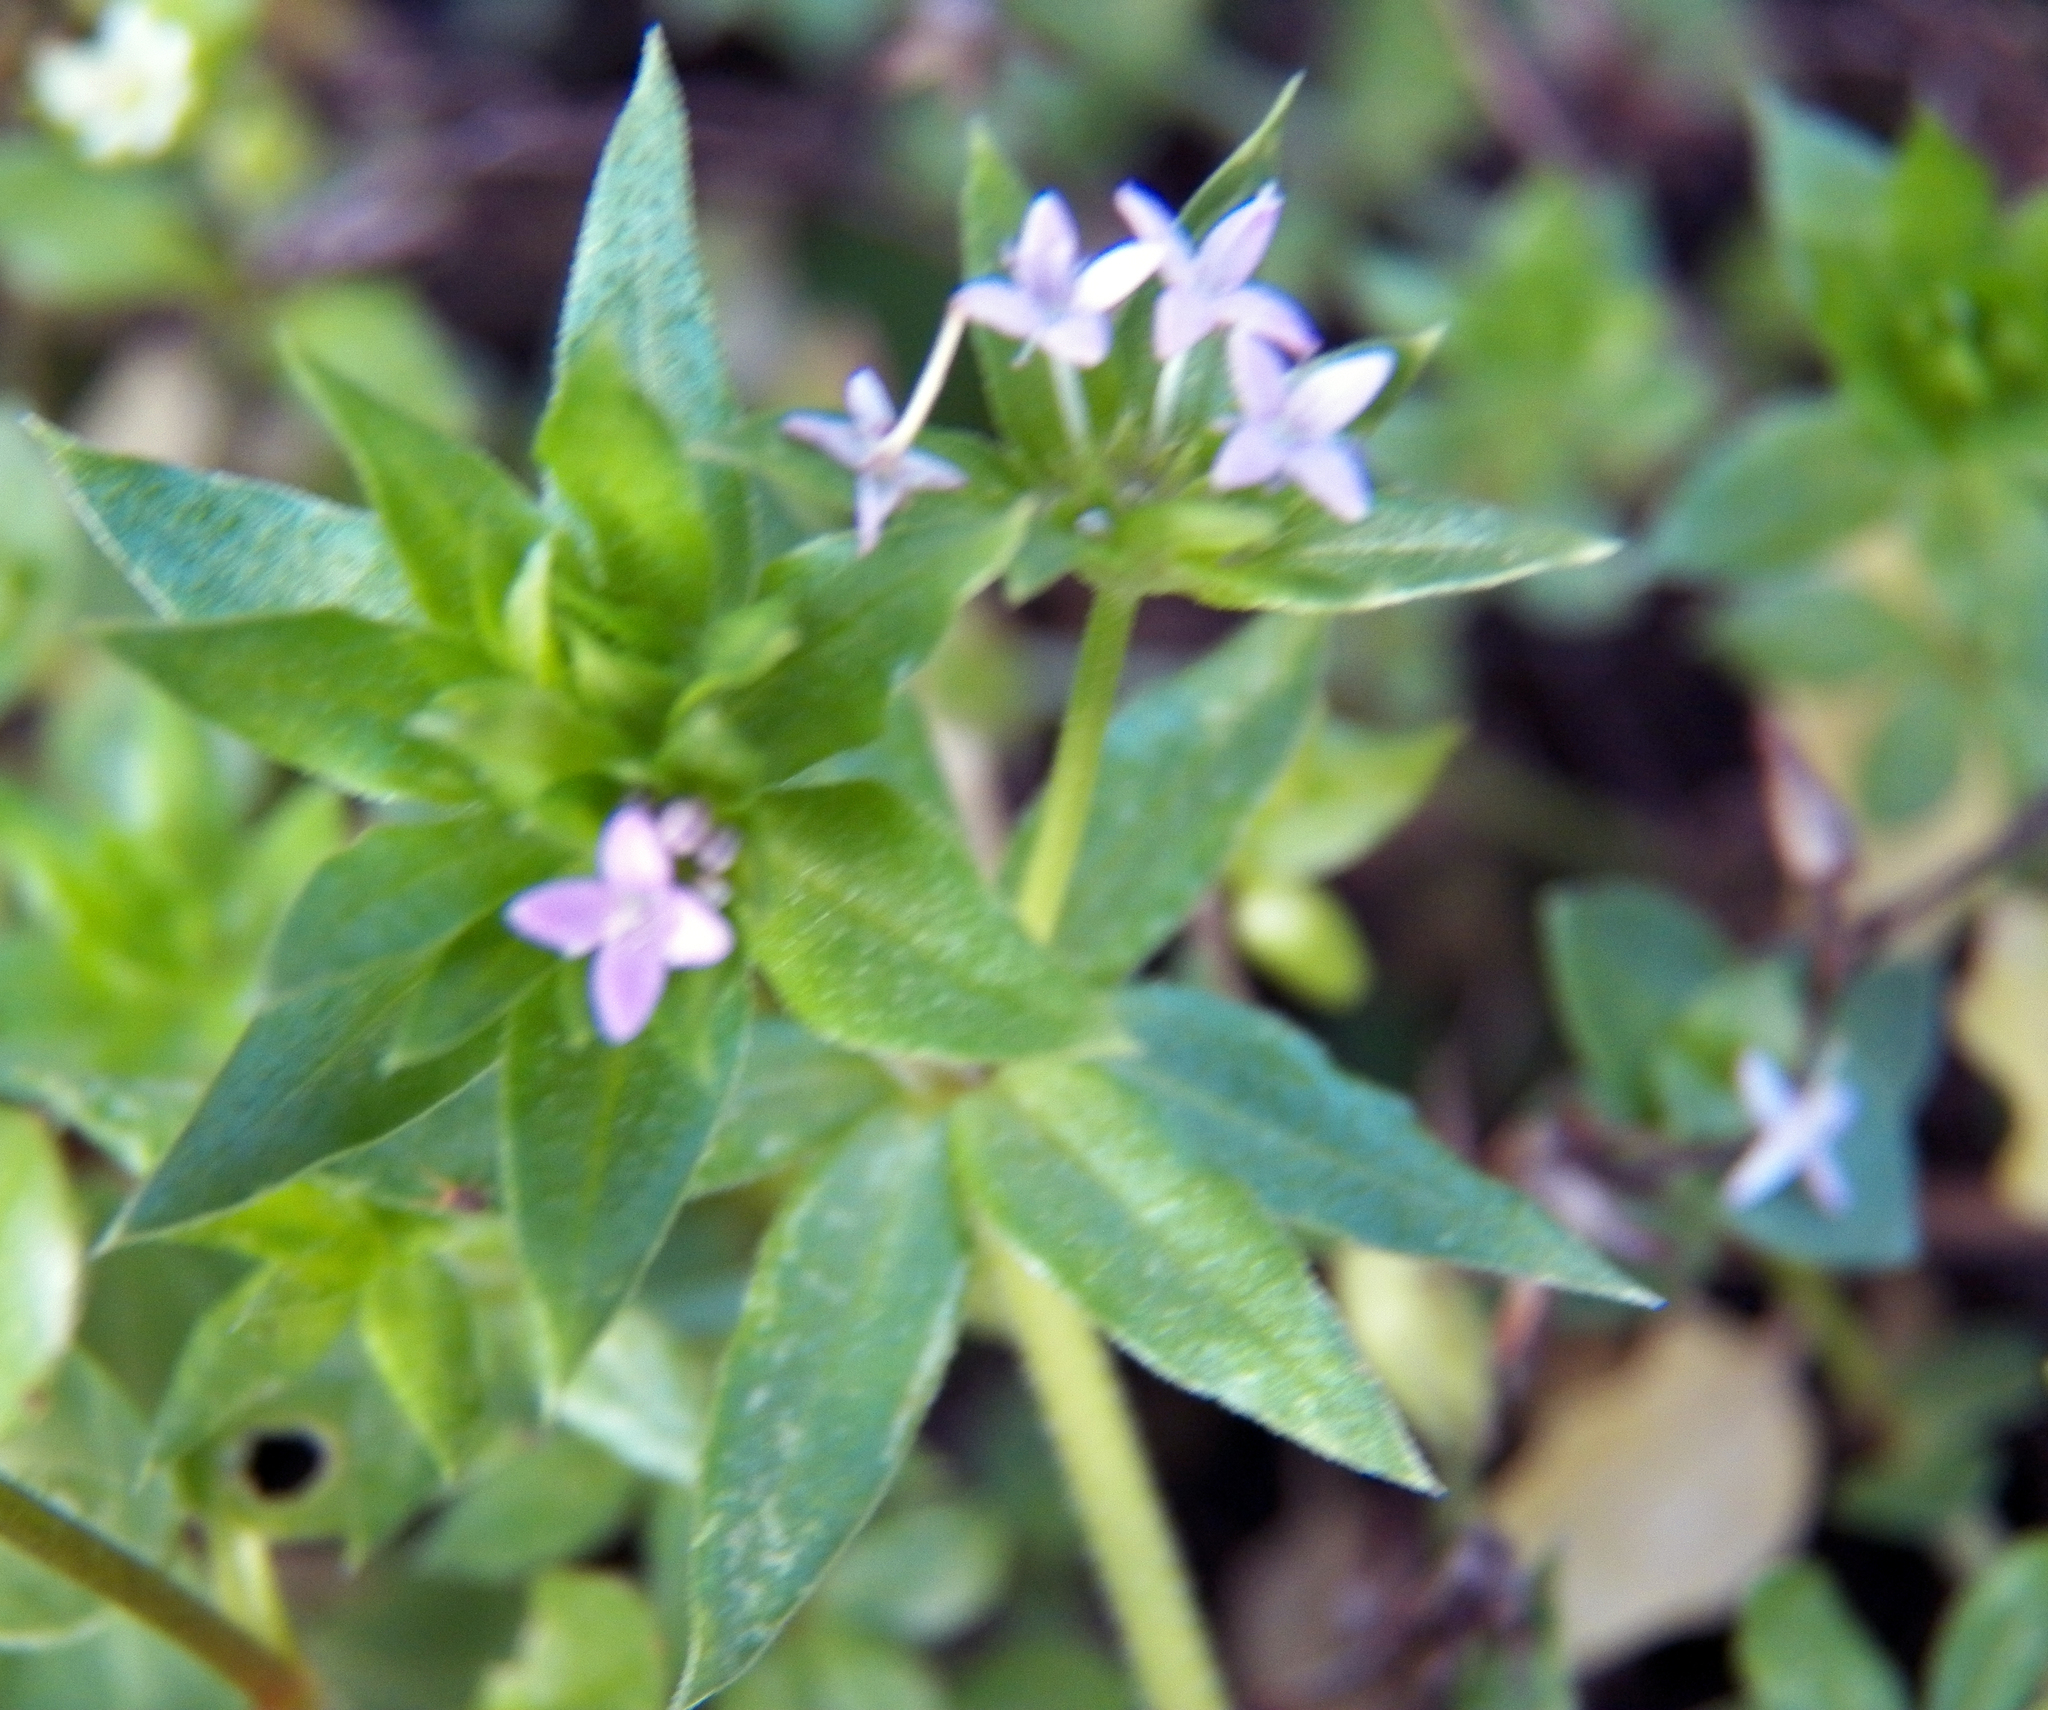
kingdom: Plantae
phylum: Tracheophyta
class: Magnoliopsida
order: Gentianales
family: Rubiaceae
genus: Sherardia
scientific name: Sherardia arvensis
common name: Field madder
